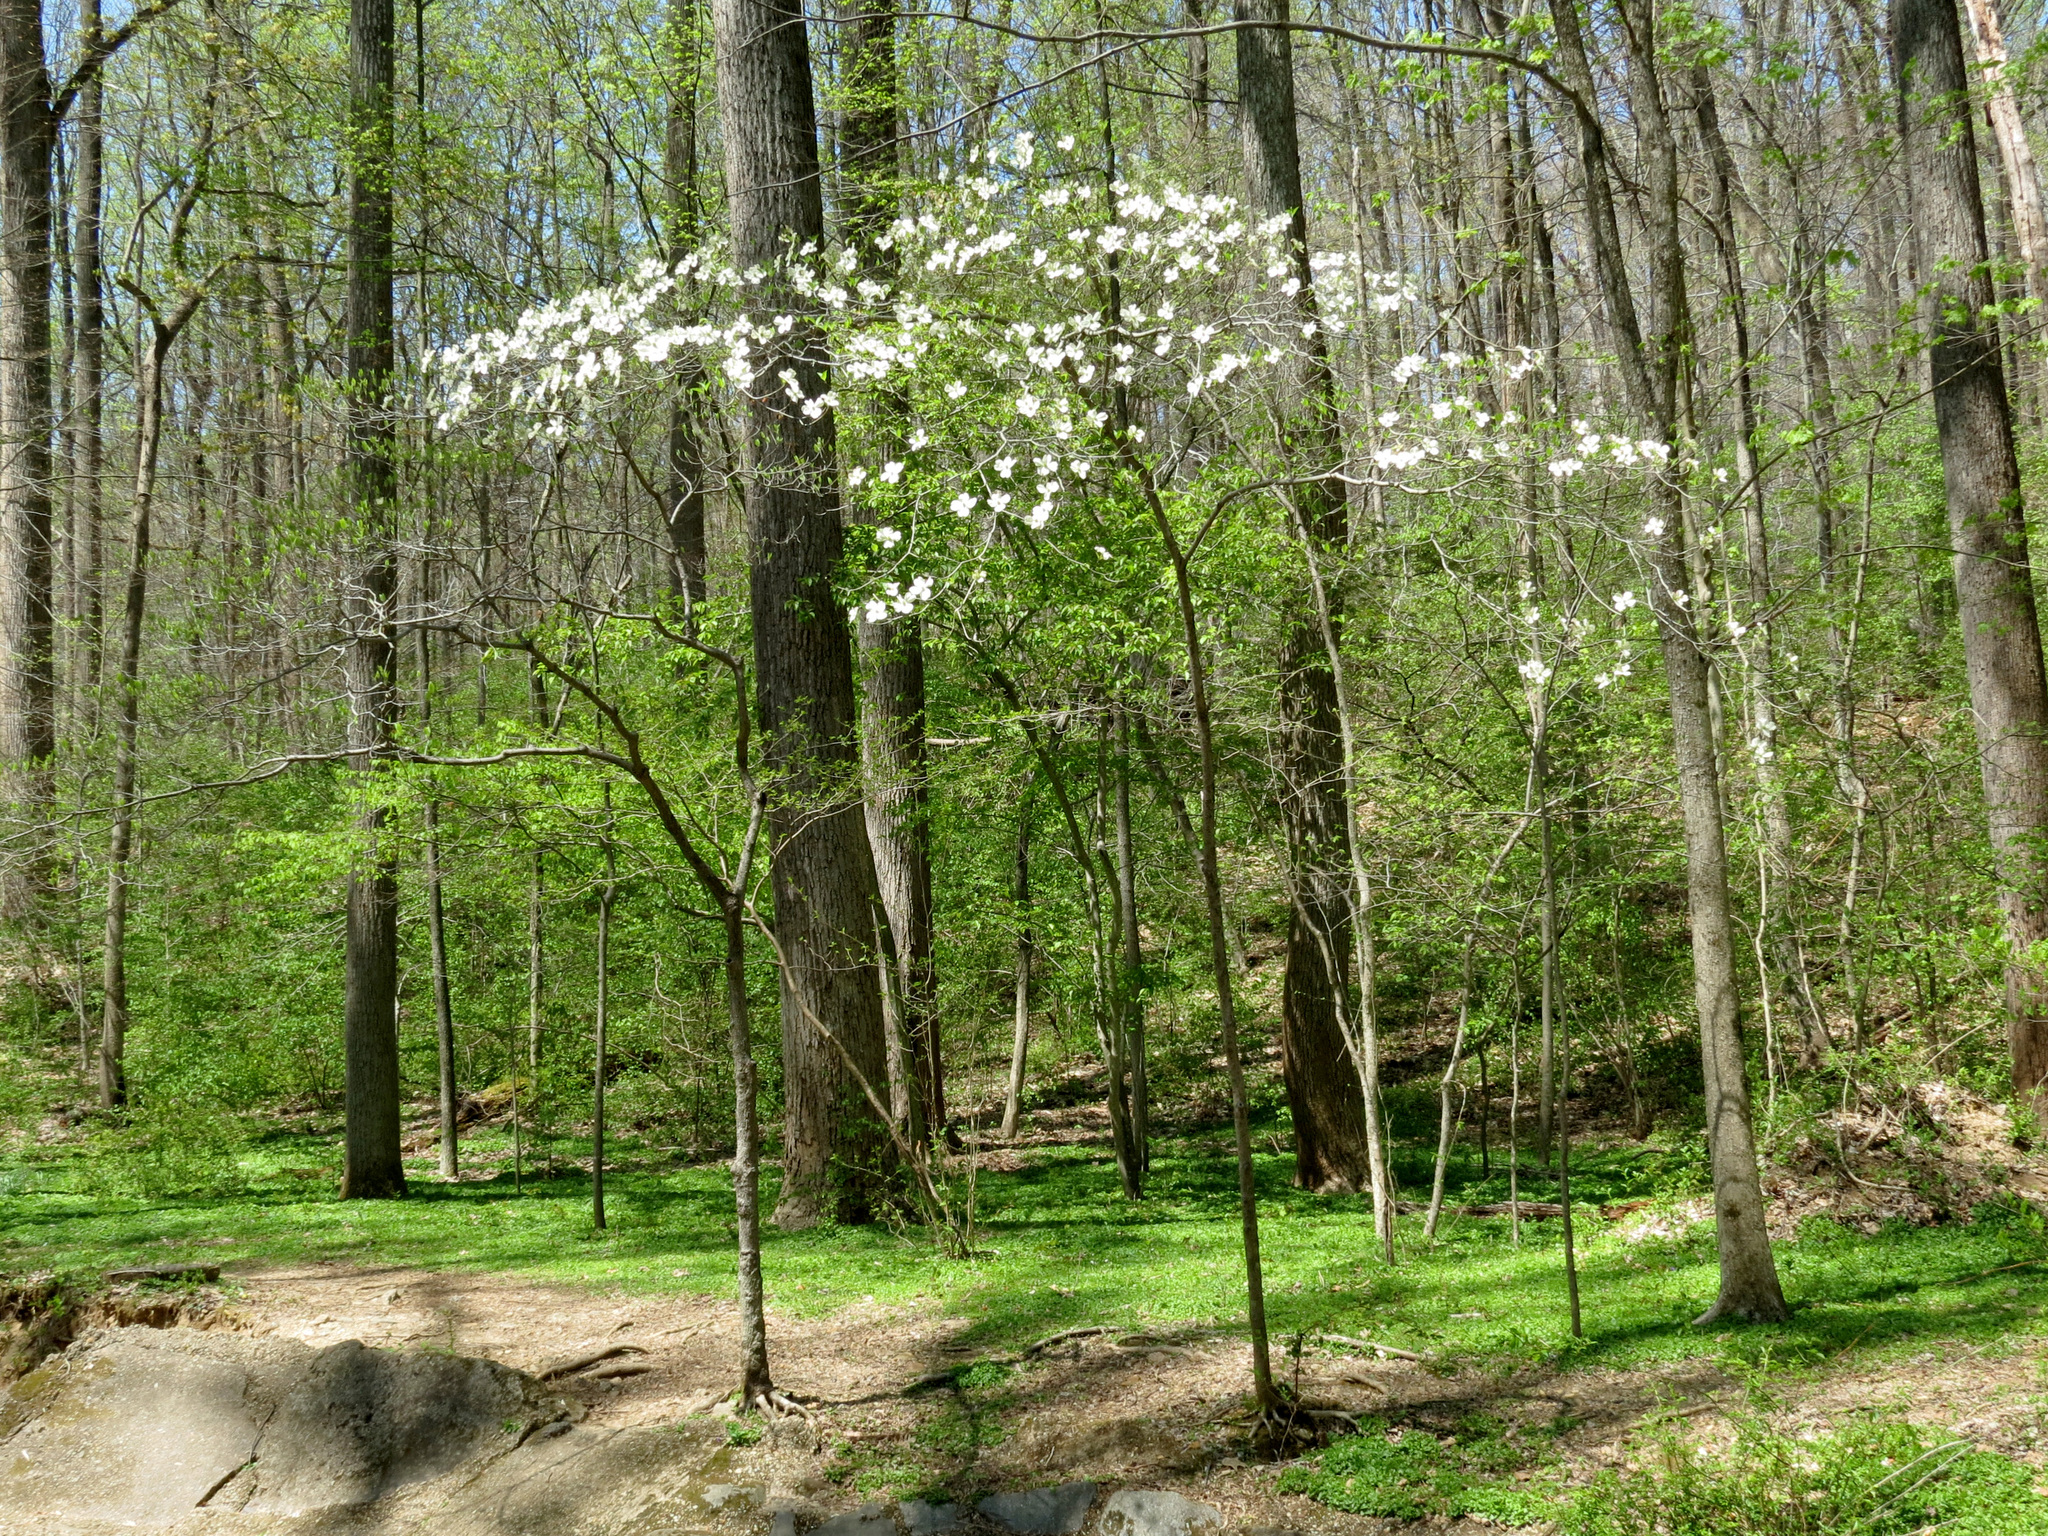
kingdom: Plantae
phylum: Tracheophyta
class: Magnoliopsida
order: Cornales
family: Cornaceae
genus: Cornus
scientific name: Cornus florida
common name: Flowering dogwood
